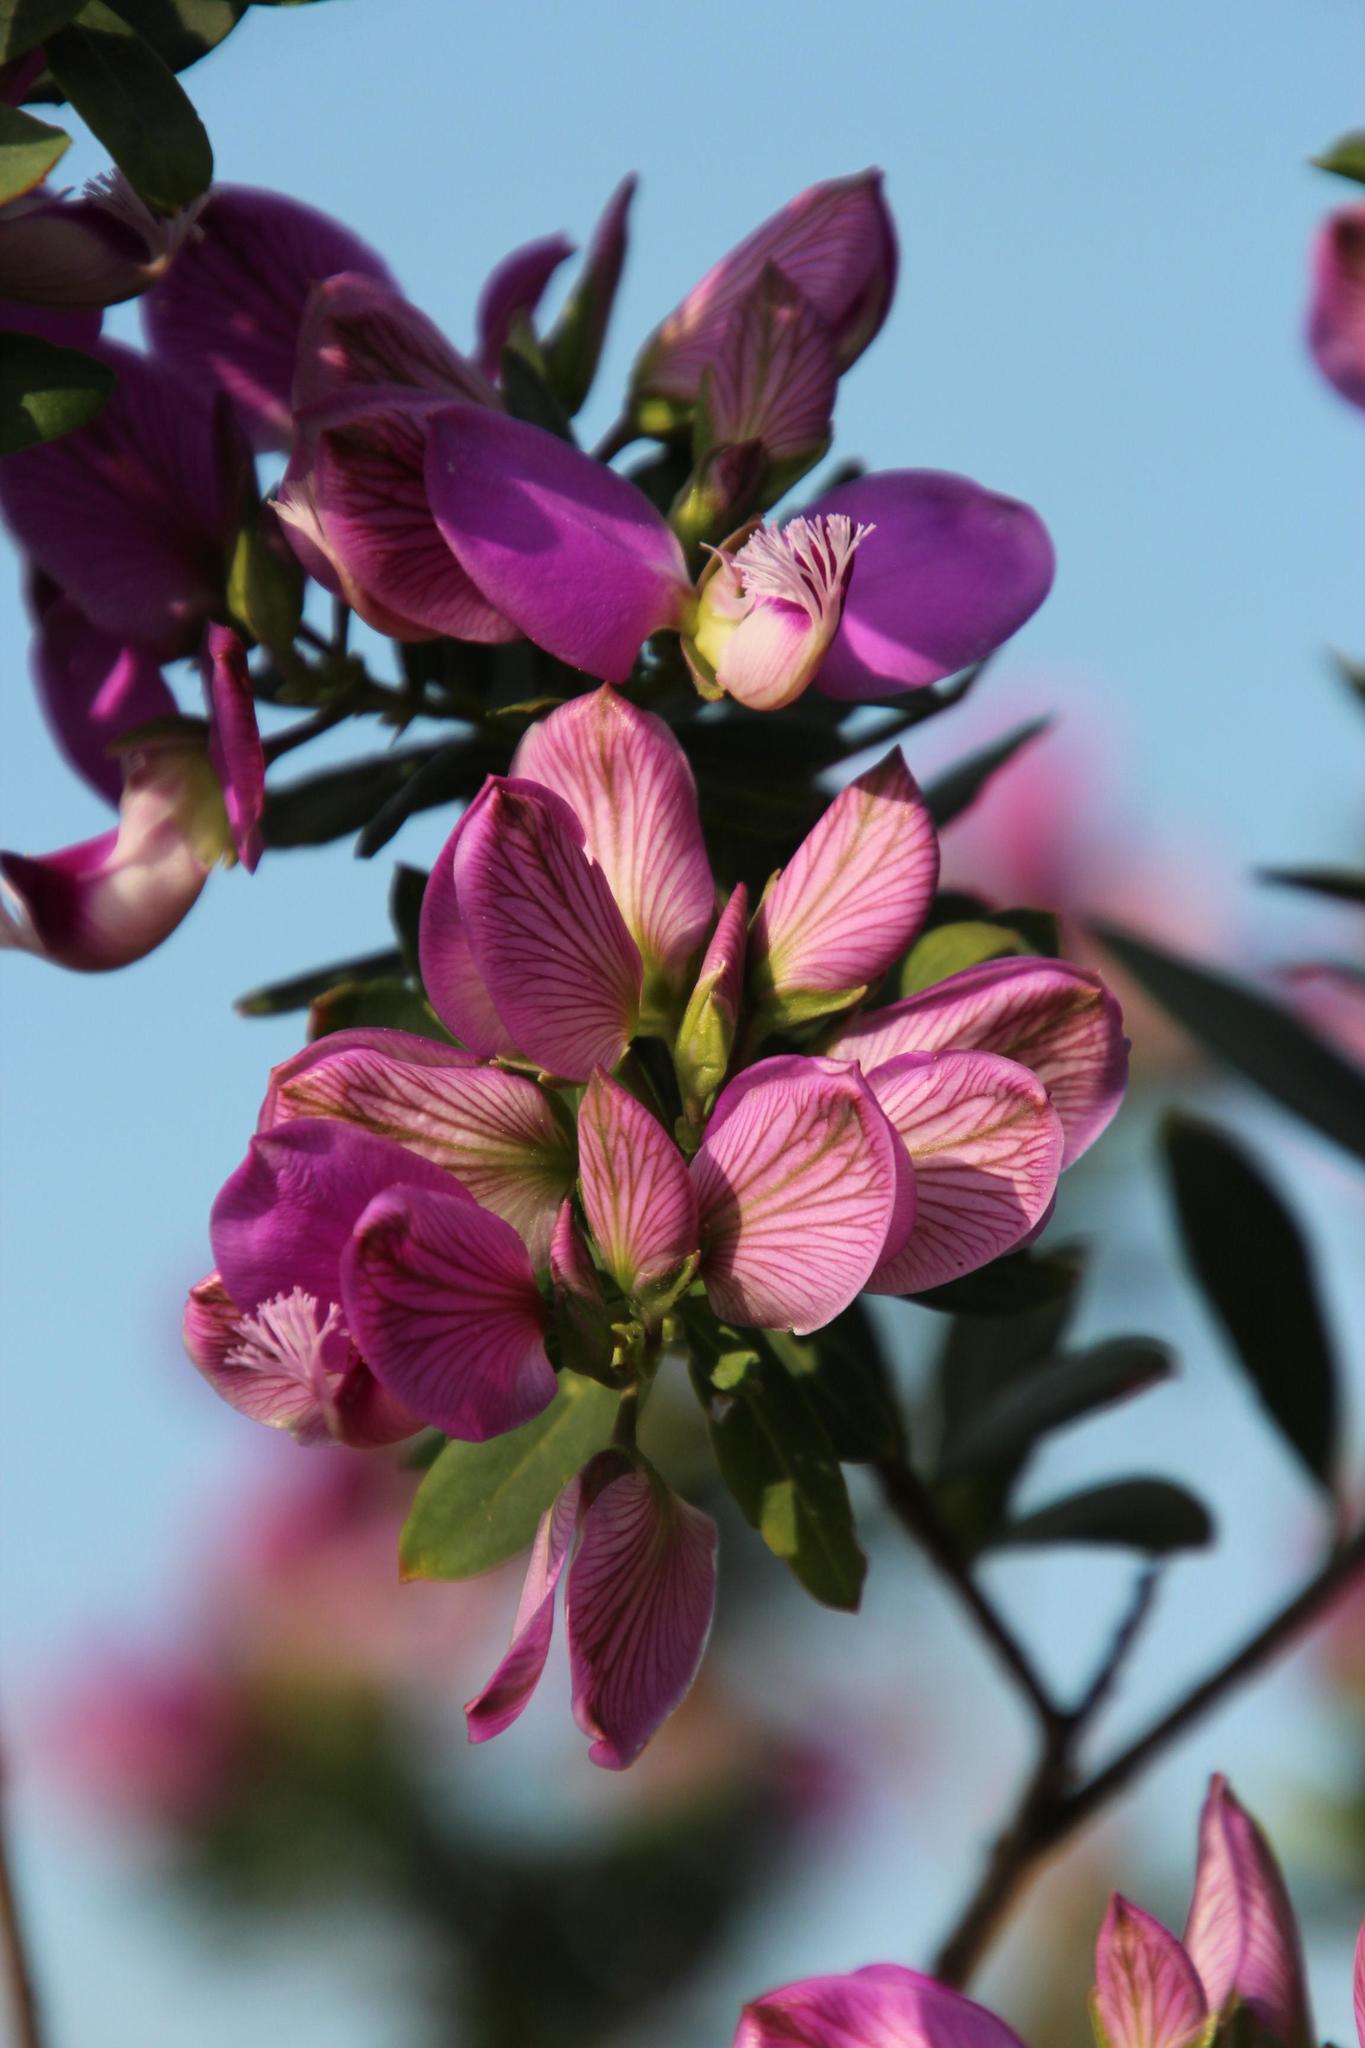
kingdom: Plantae
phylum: Tracheophyta
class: Magnoliopsida
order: Fabales
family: Polygalaceae
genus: Polygala
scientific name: Polygala myrtifolia
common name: Myrtle-leaf milkwort
